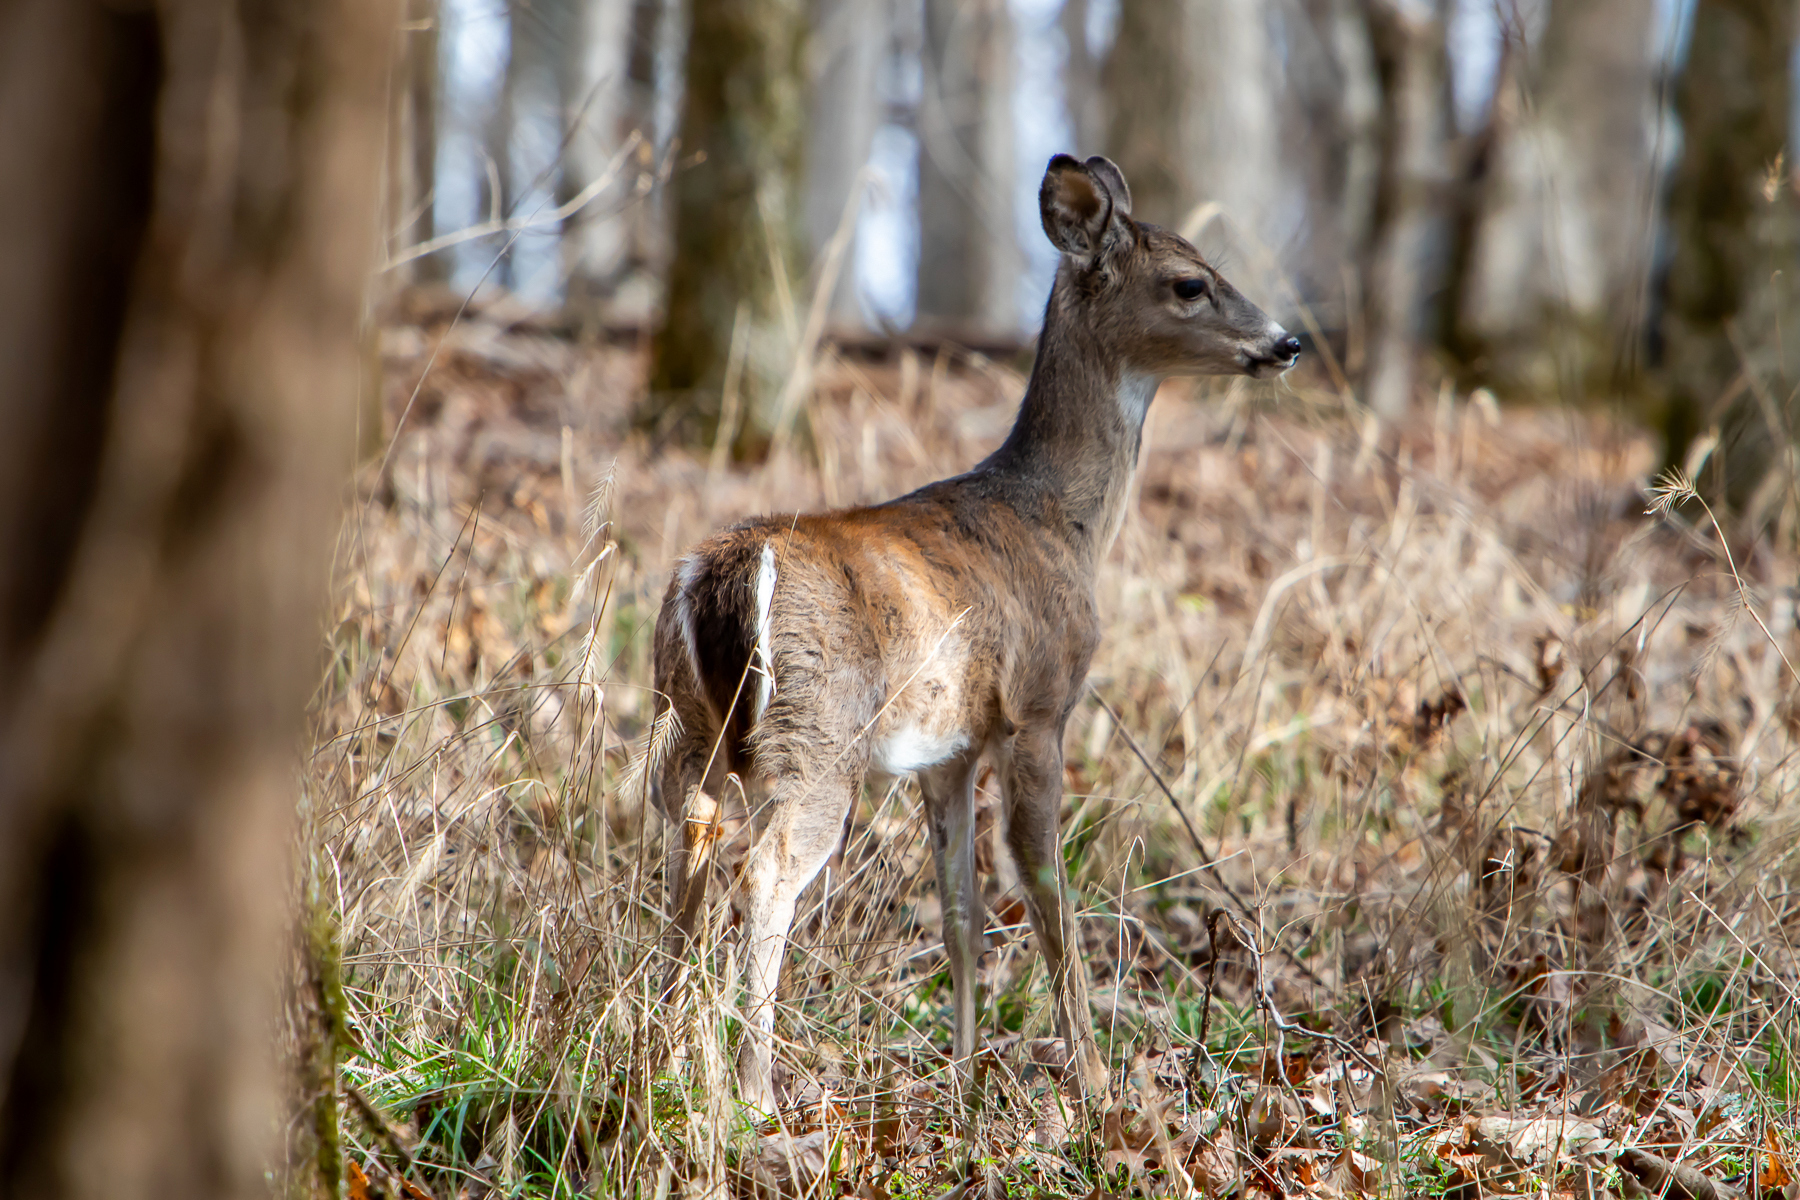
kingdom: Animalia
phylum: Chordata
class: Mammalia
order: Artiodactyla
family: Cervidae
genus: Odocoileus
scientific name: Odocoileus virginianus
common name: White-tailed deer
